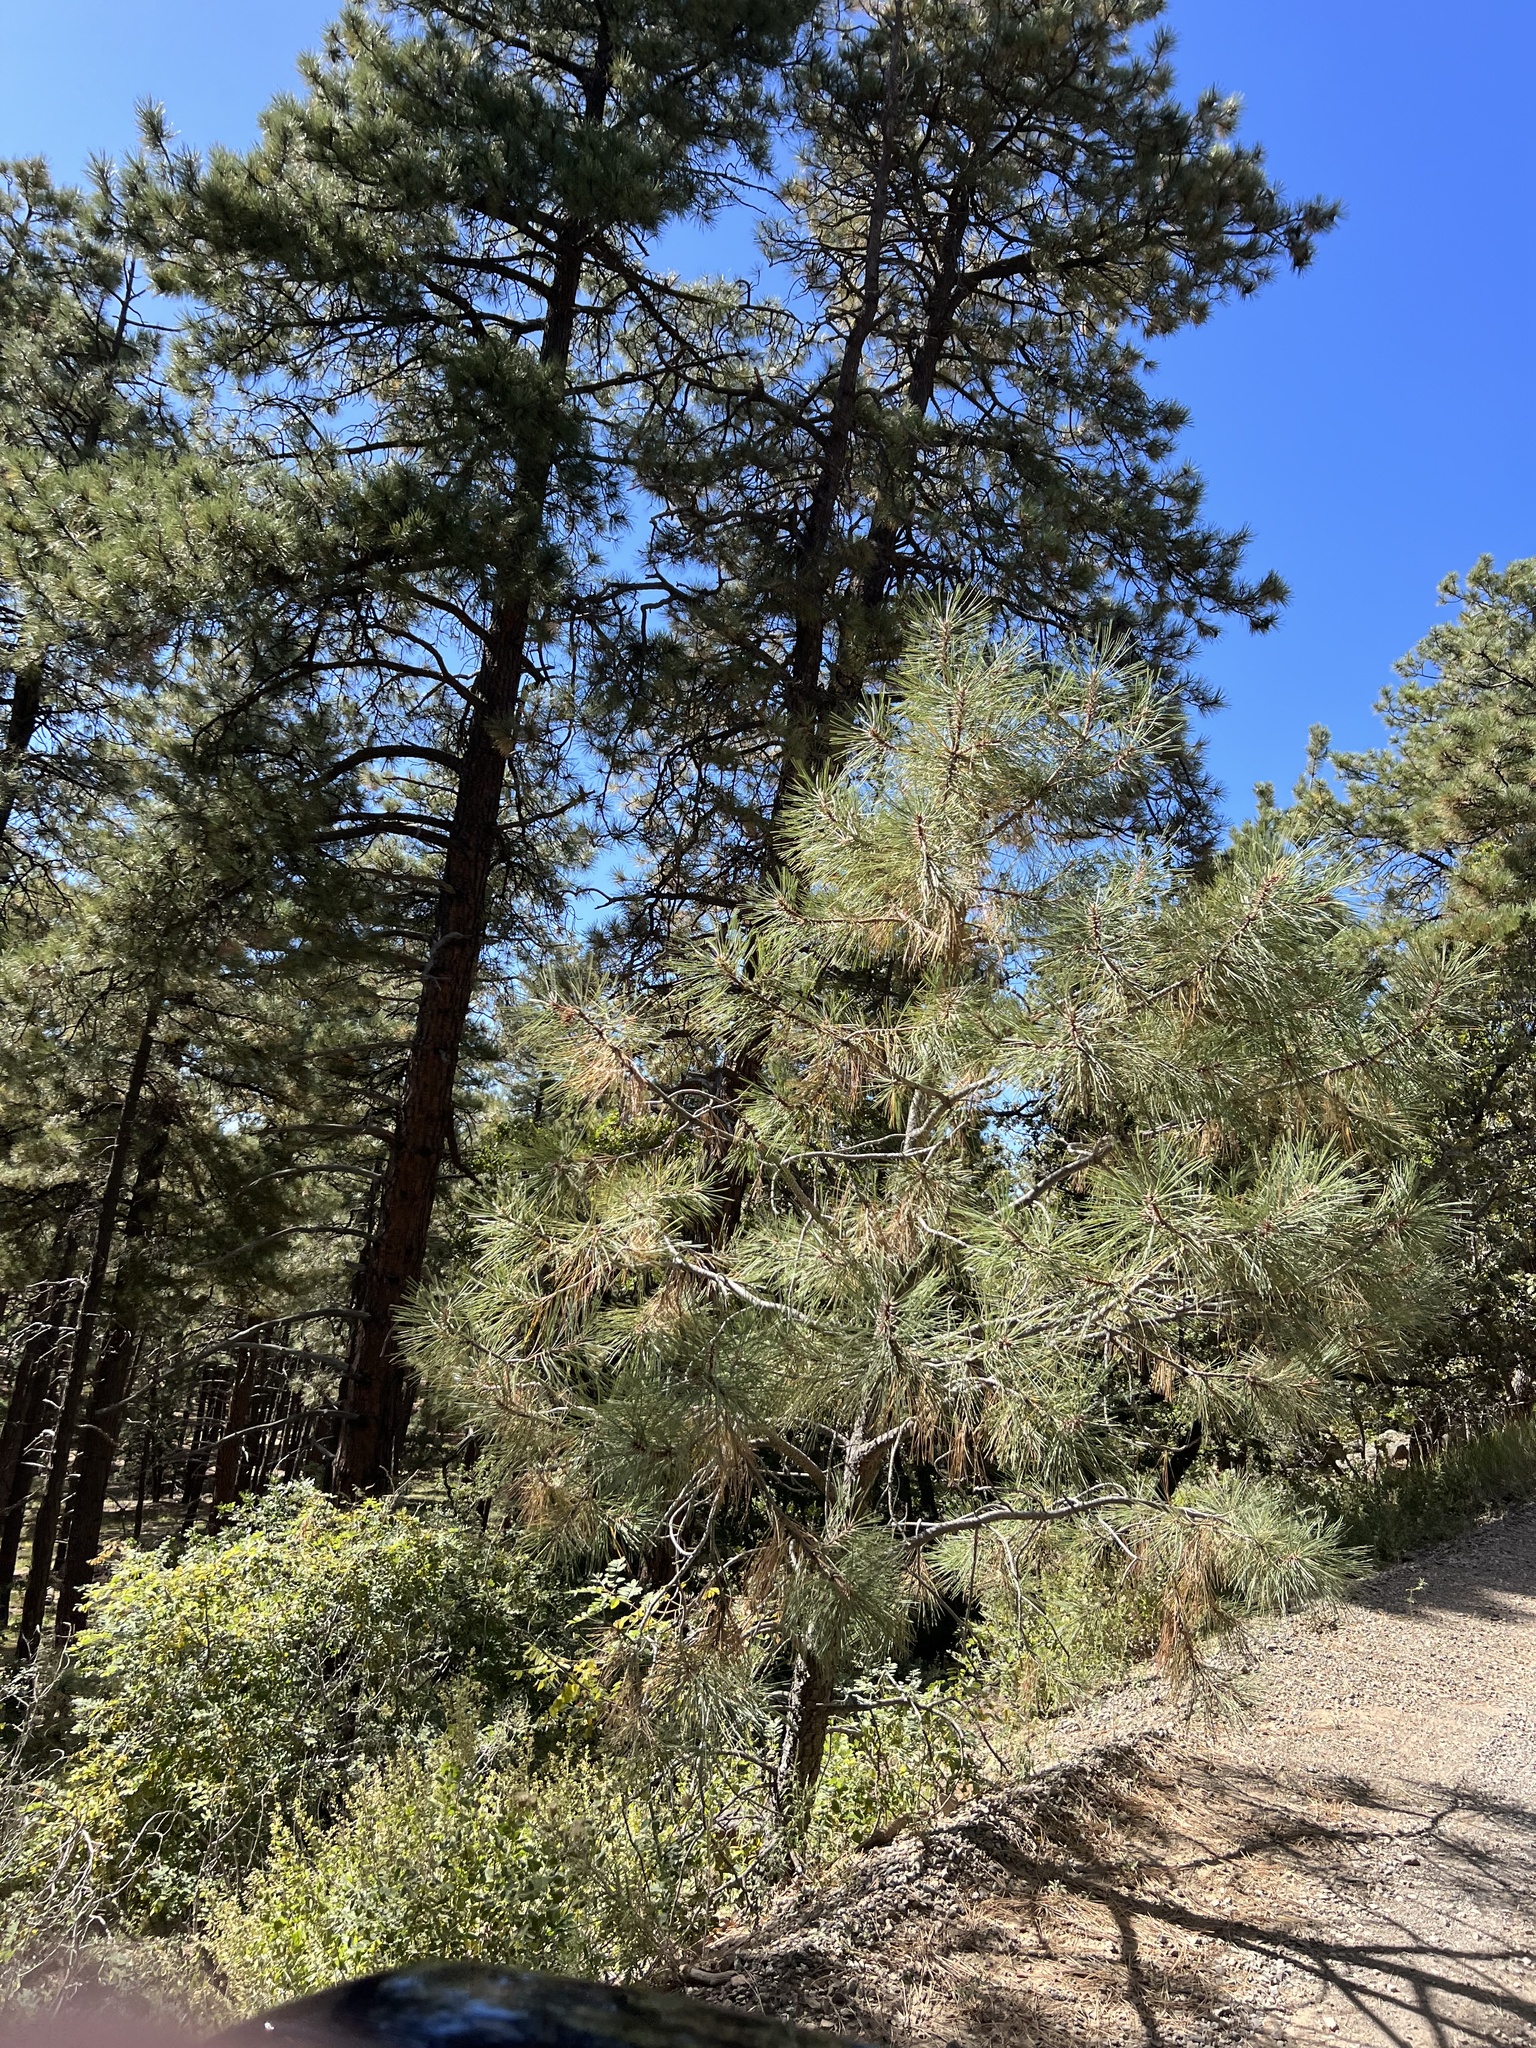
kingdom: Plantae
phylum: Tracheophyta
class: Pinopsida
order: Pinales
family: Pinaceae
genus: Pinus
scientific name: Pinus ponderosa
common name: Western yellow-pine
